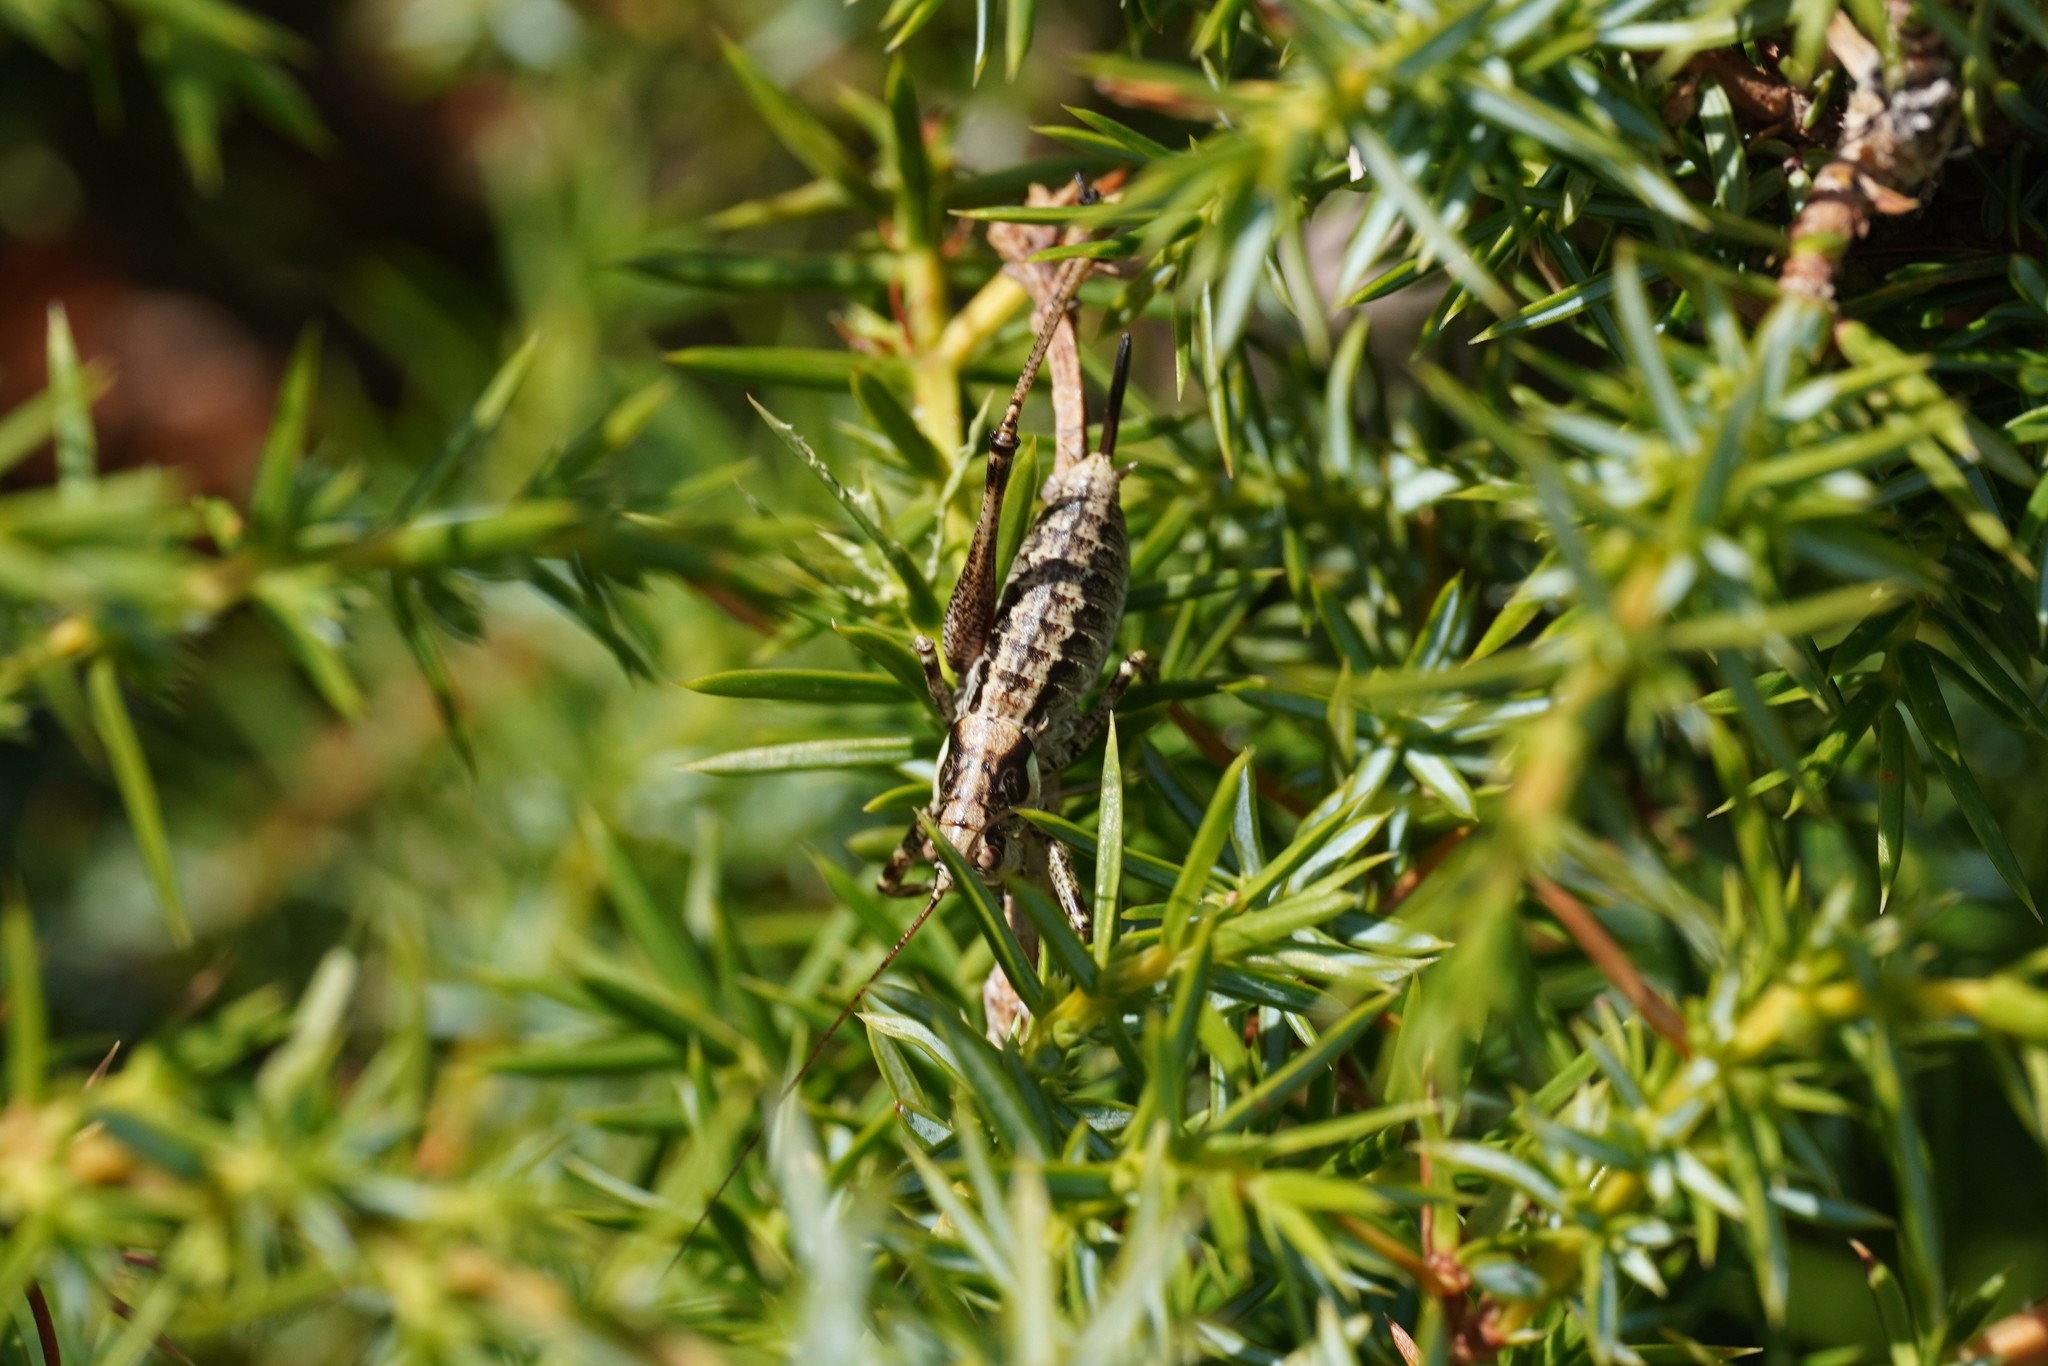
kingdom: Animalia
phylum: Arthropoda
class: Insecta
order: Orthoptera
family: Tettigoniidae
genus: Antaxius
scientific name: Antaxius pedestris
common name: Common mountain bush-cricket
